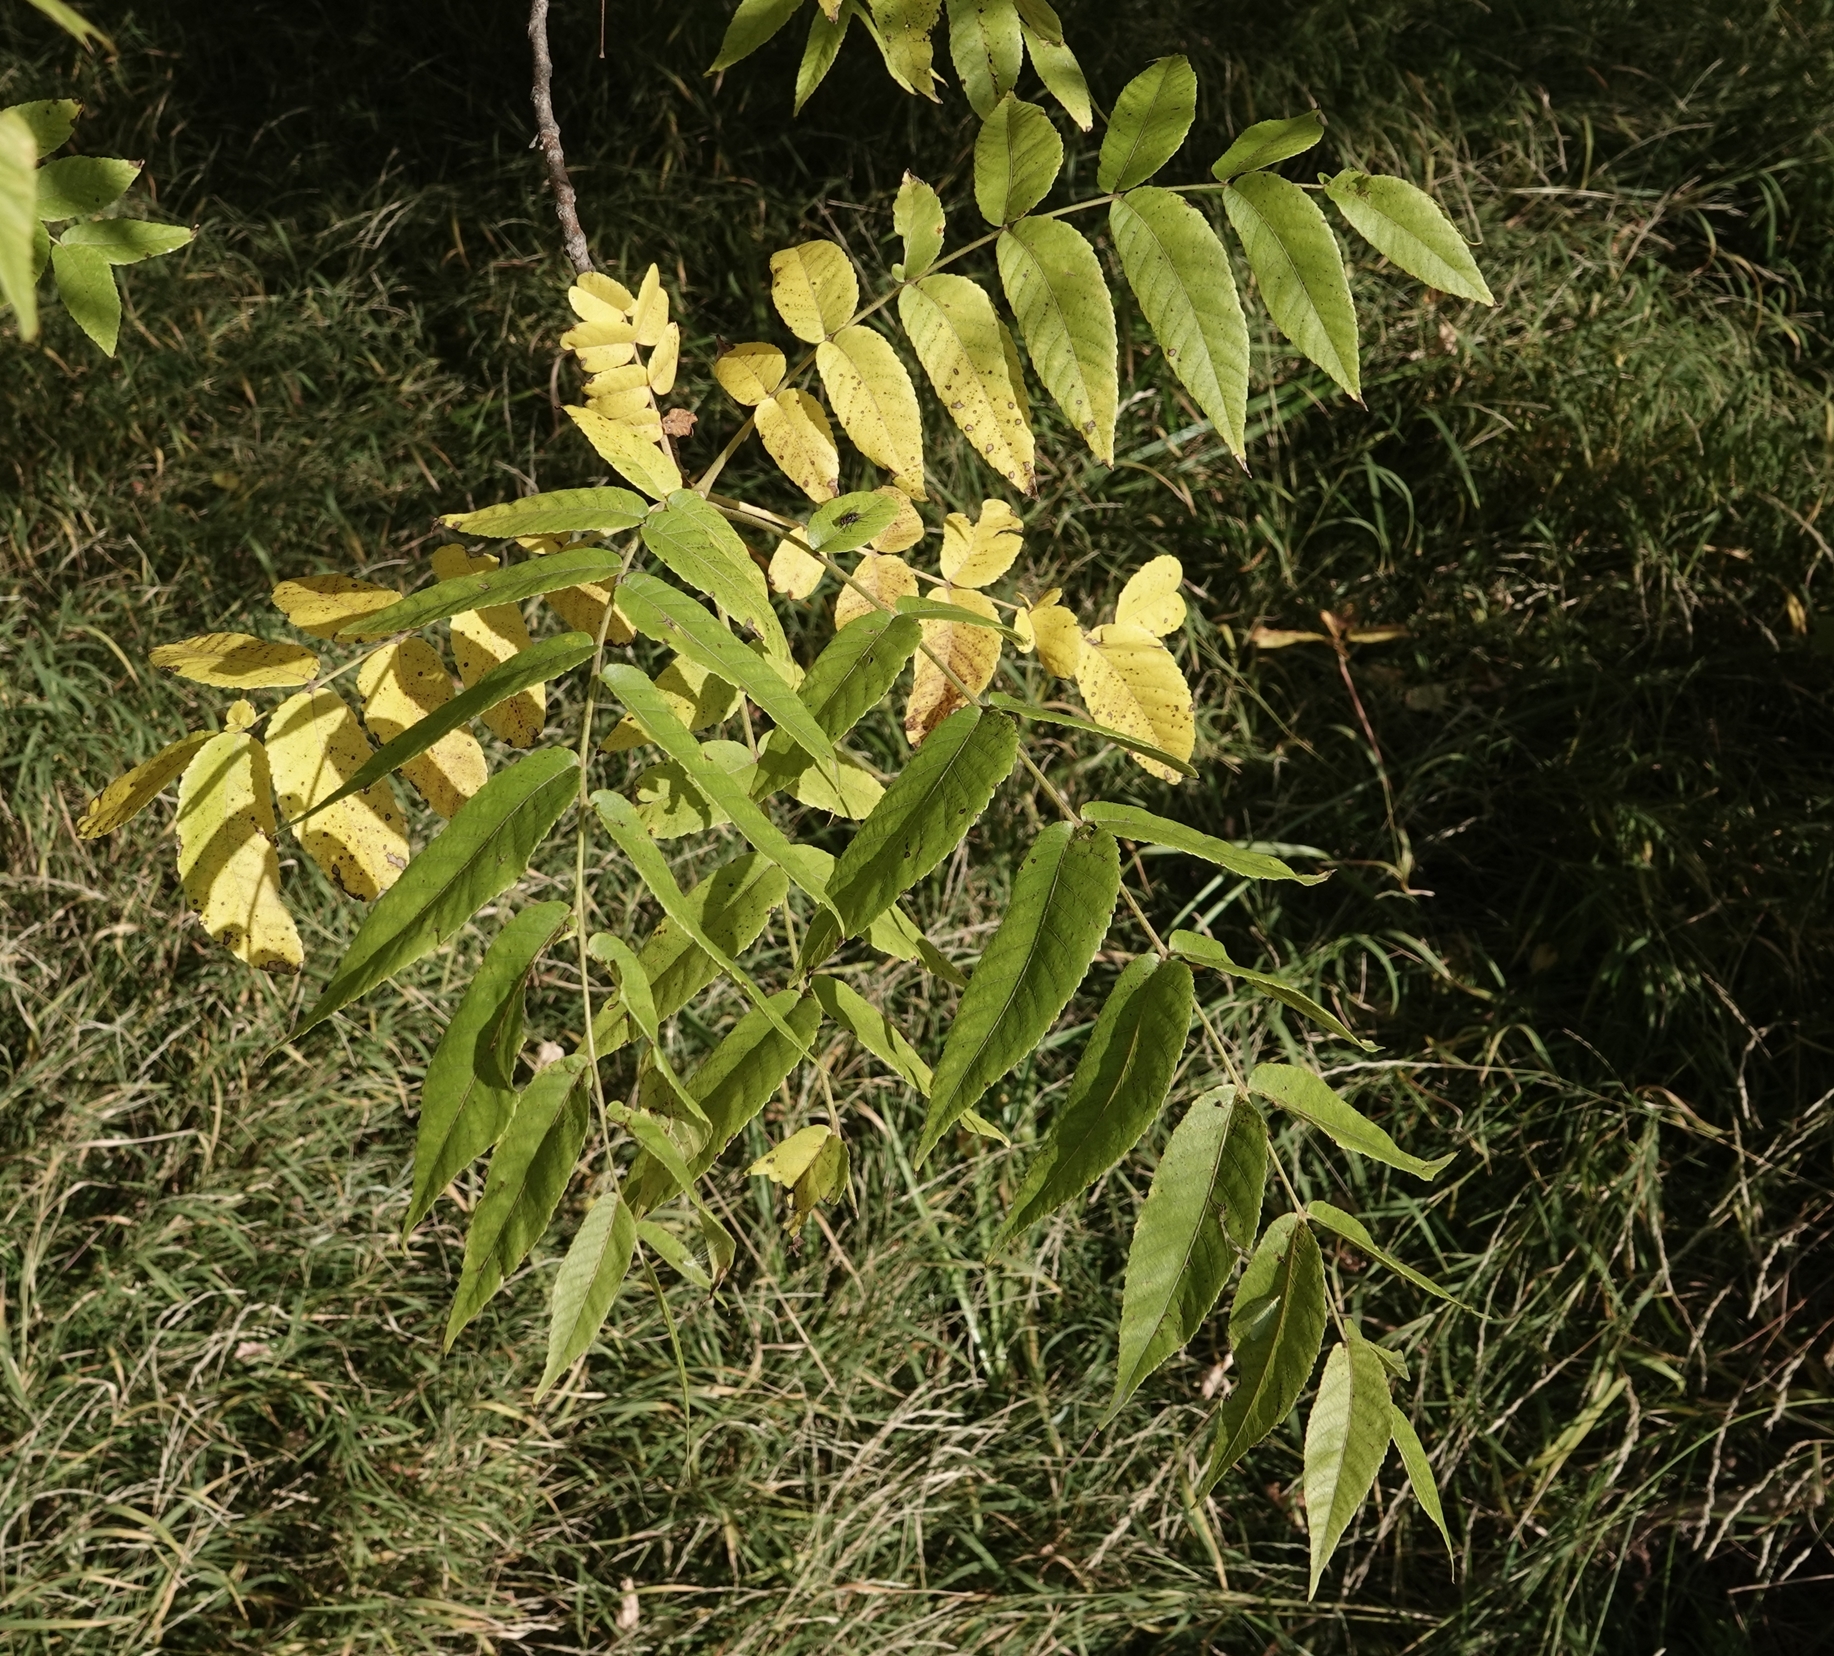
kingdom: Plantae
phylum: Tracheophyta
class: Magnoliopsida
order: Fagales
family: Juglandaceae
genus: Juglans
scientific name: Juglans nigra
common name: Black walnut
